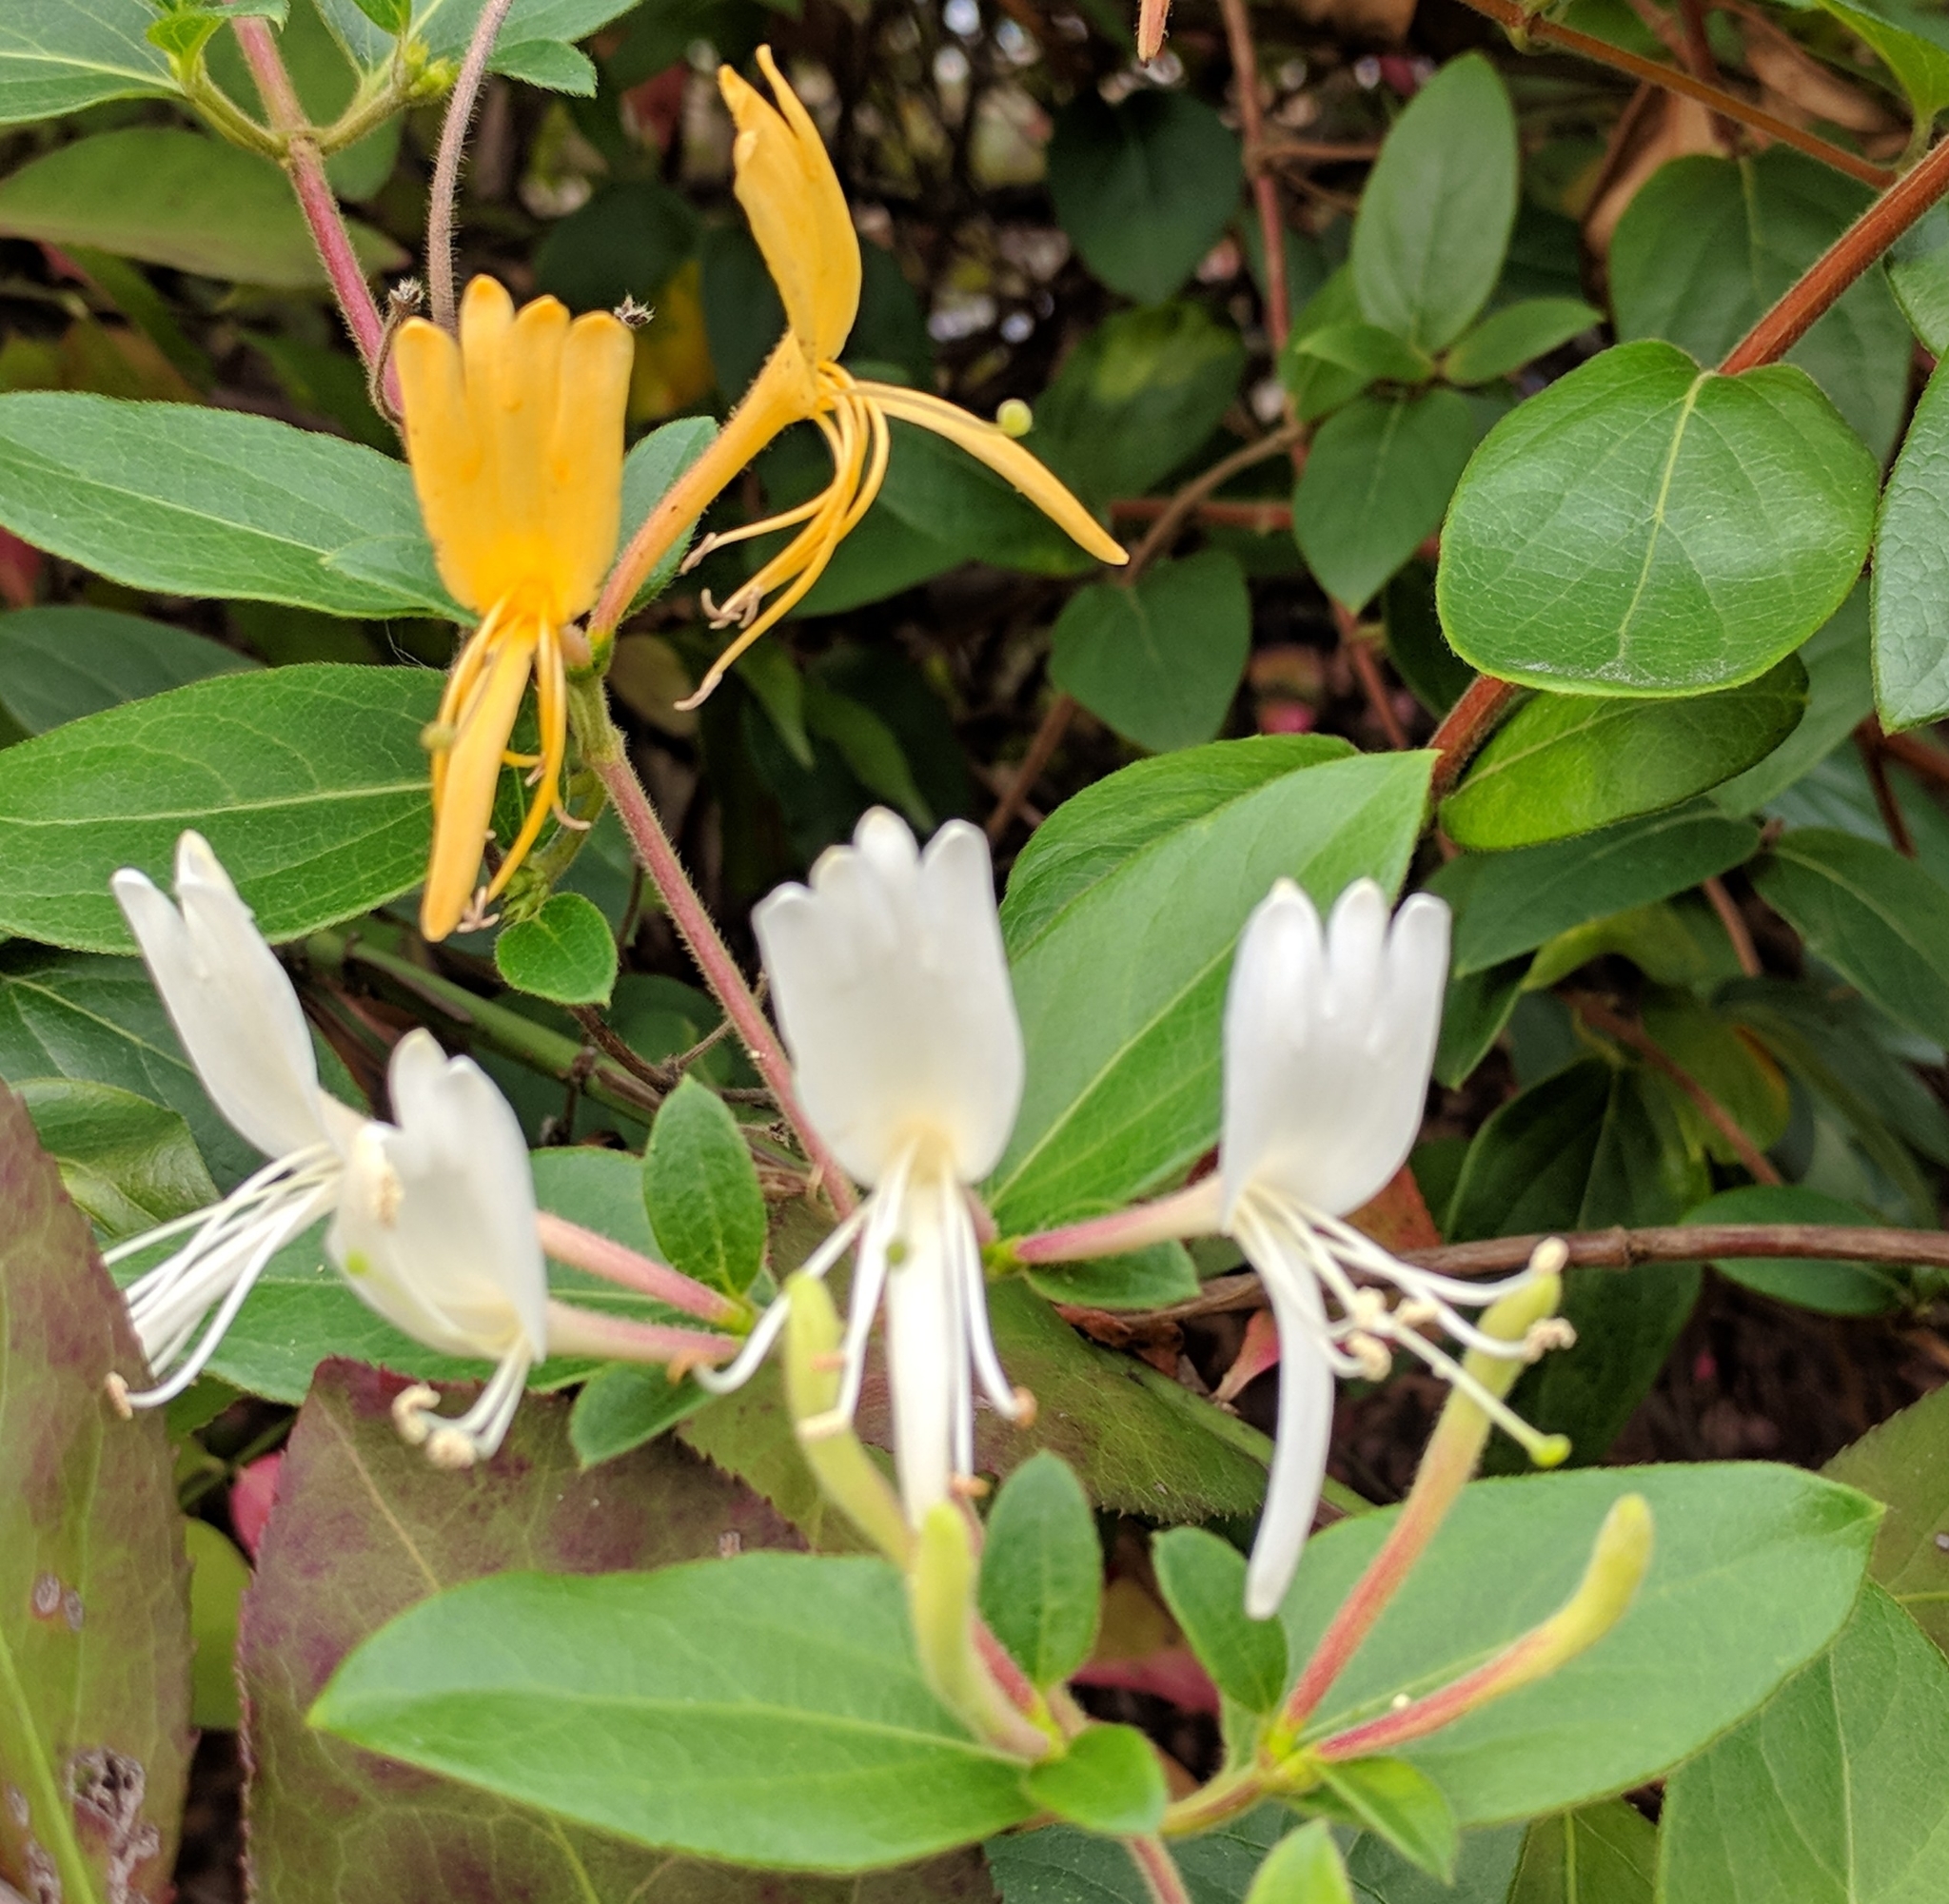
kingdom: Plantae
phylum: Tracheophyta
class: Magnoliopsida
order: Dipsacales
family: Caprifoliaceae
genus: Lonicera
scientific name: Lonicera japonica
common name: Japanese honeysuckle
